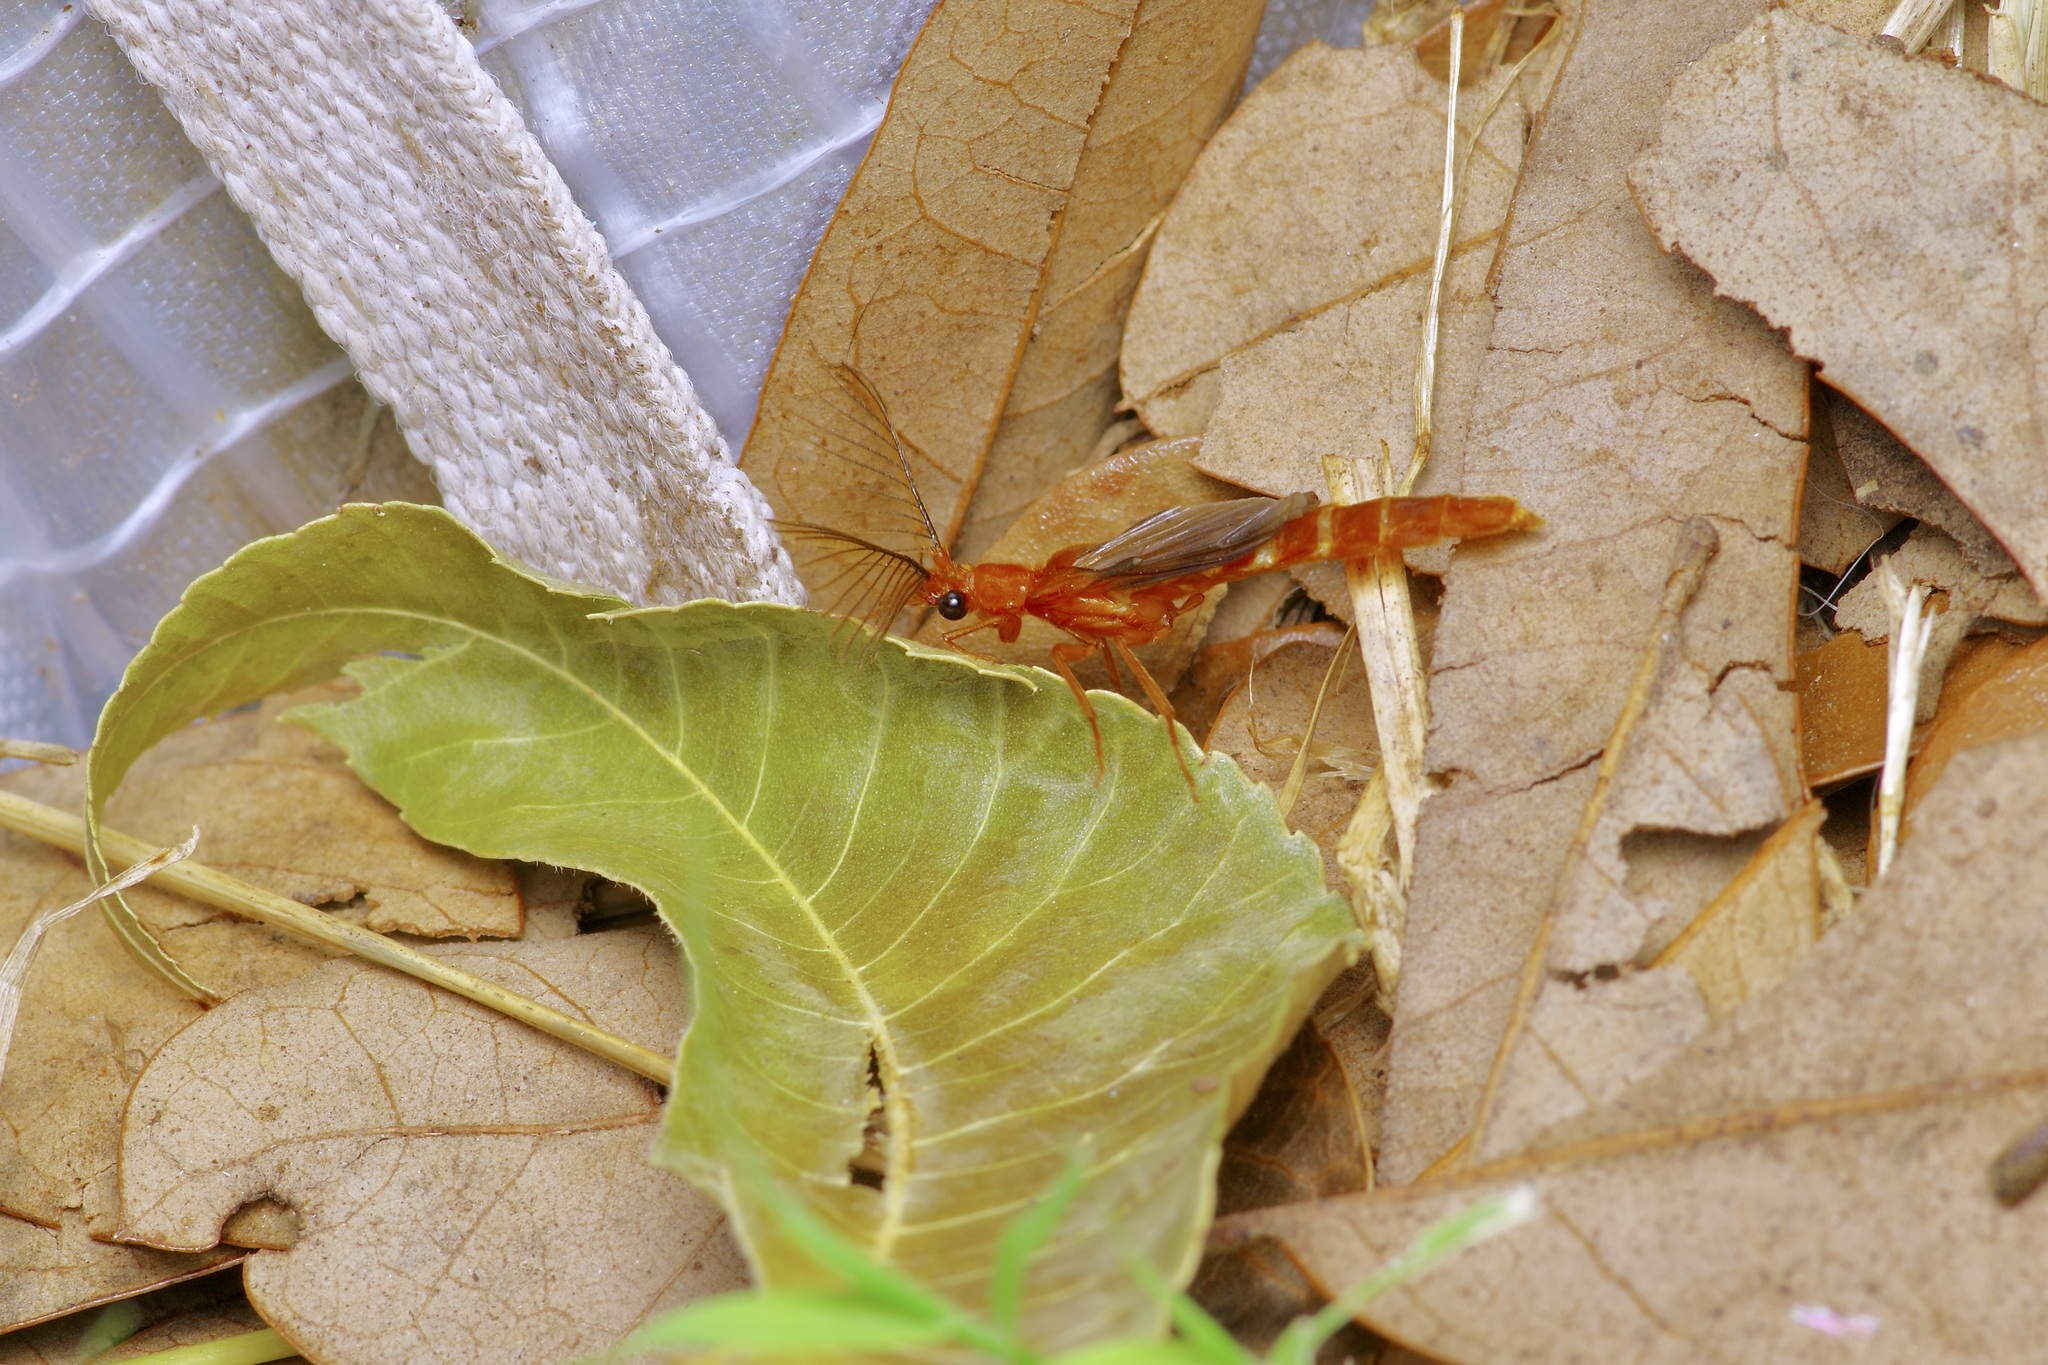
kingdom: Animalia
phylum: Arthropoda
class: Insecta
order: Coleoptera
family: Phengodidae
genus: Phengodes
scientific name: Phengodes
